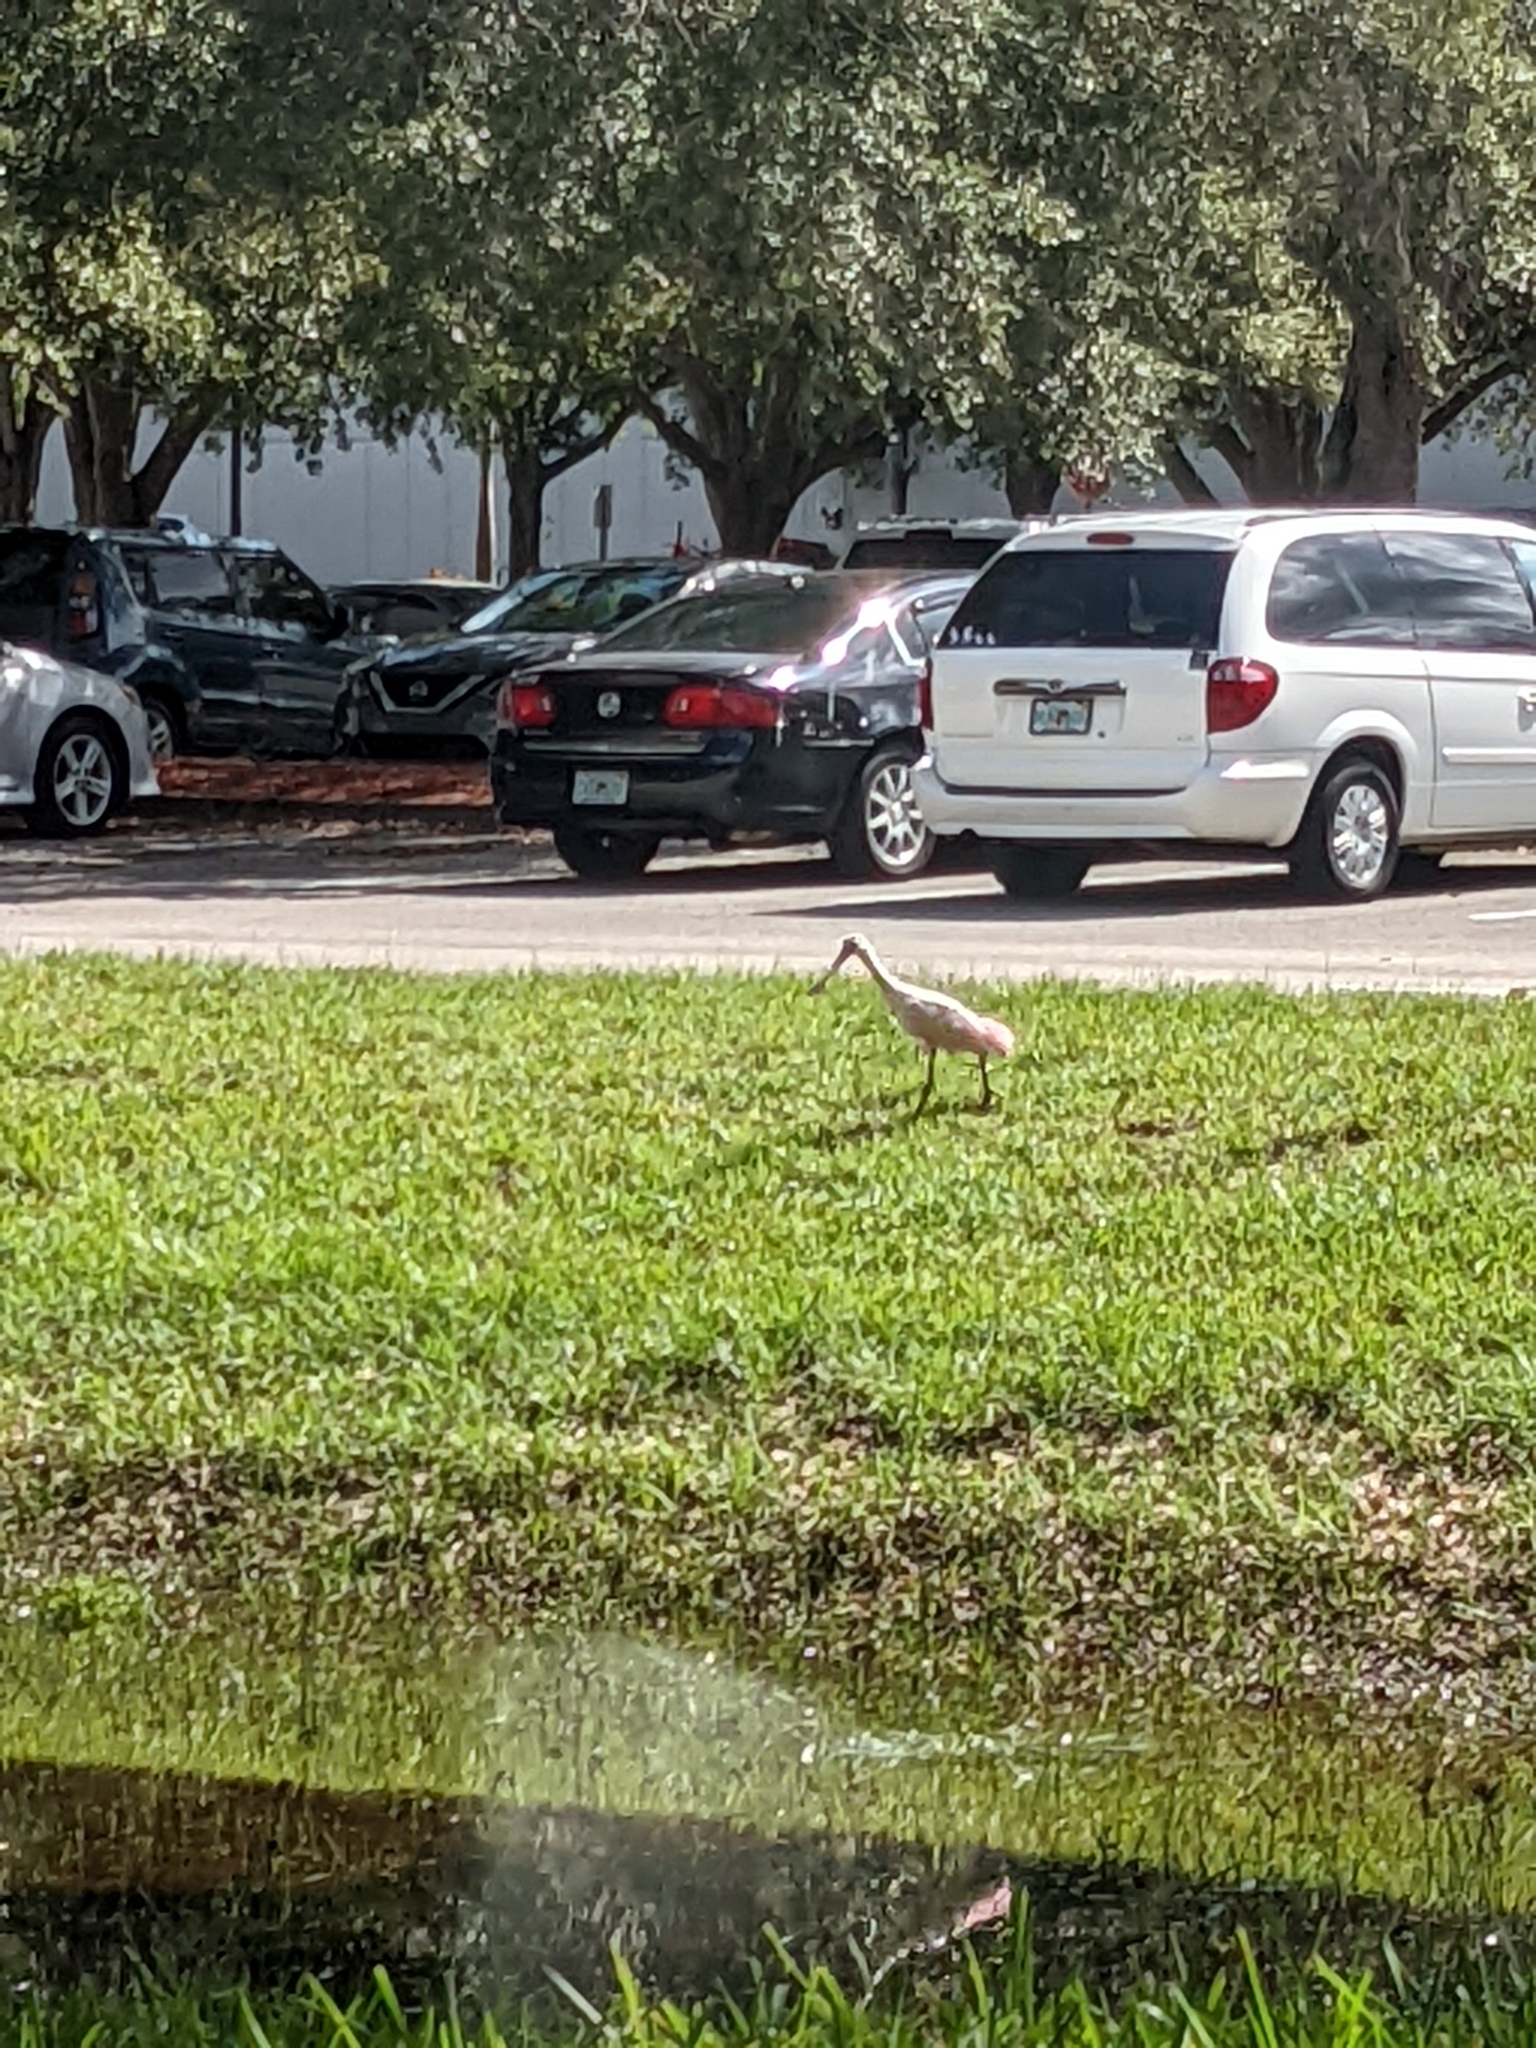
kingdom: Animalia
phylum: Chordata
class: Aves
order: Pelecaniformes
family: Threskiornithidae
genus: Platalea
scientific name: Platalea ajaja
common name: Roseate spoonbill
